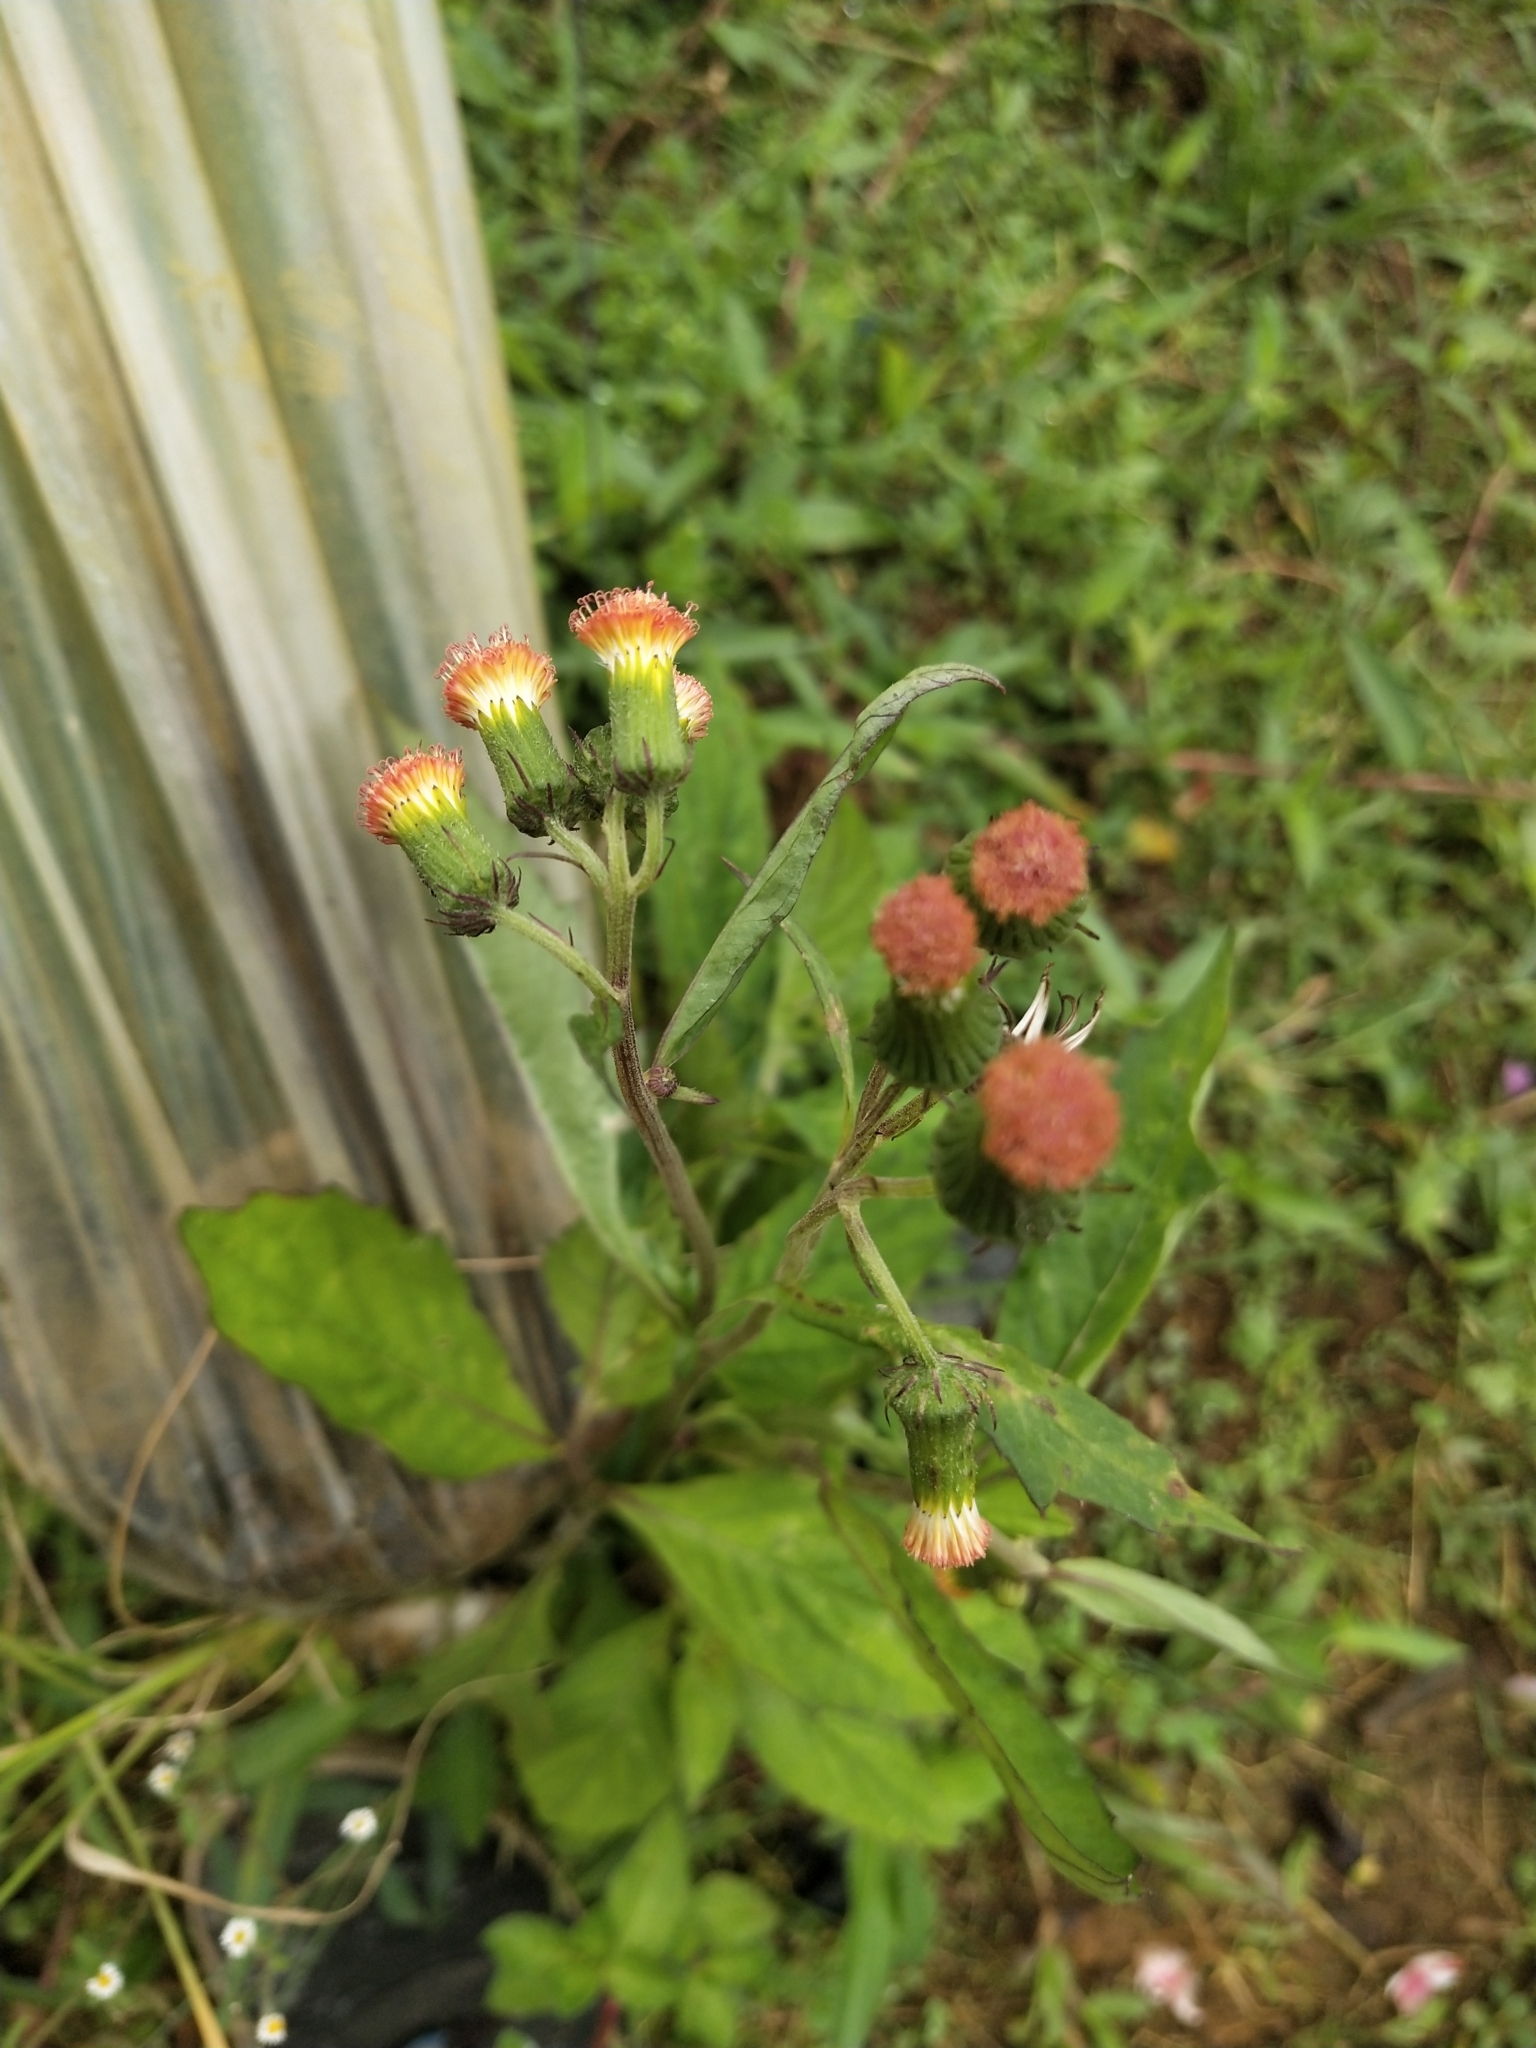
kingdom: Plantae
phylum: Tracheophyta
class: Magnoliopsida
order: Asterales
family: Asteraceae
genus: Crassocephalum
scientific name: Crassocephalum crepidioides
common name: Redflower ragleaf
